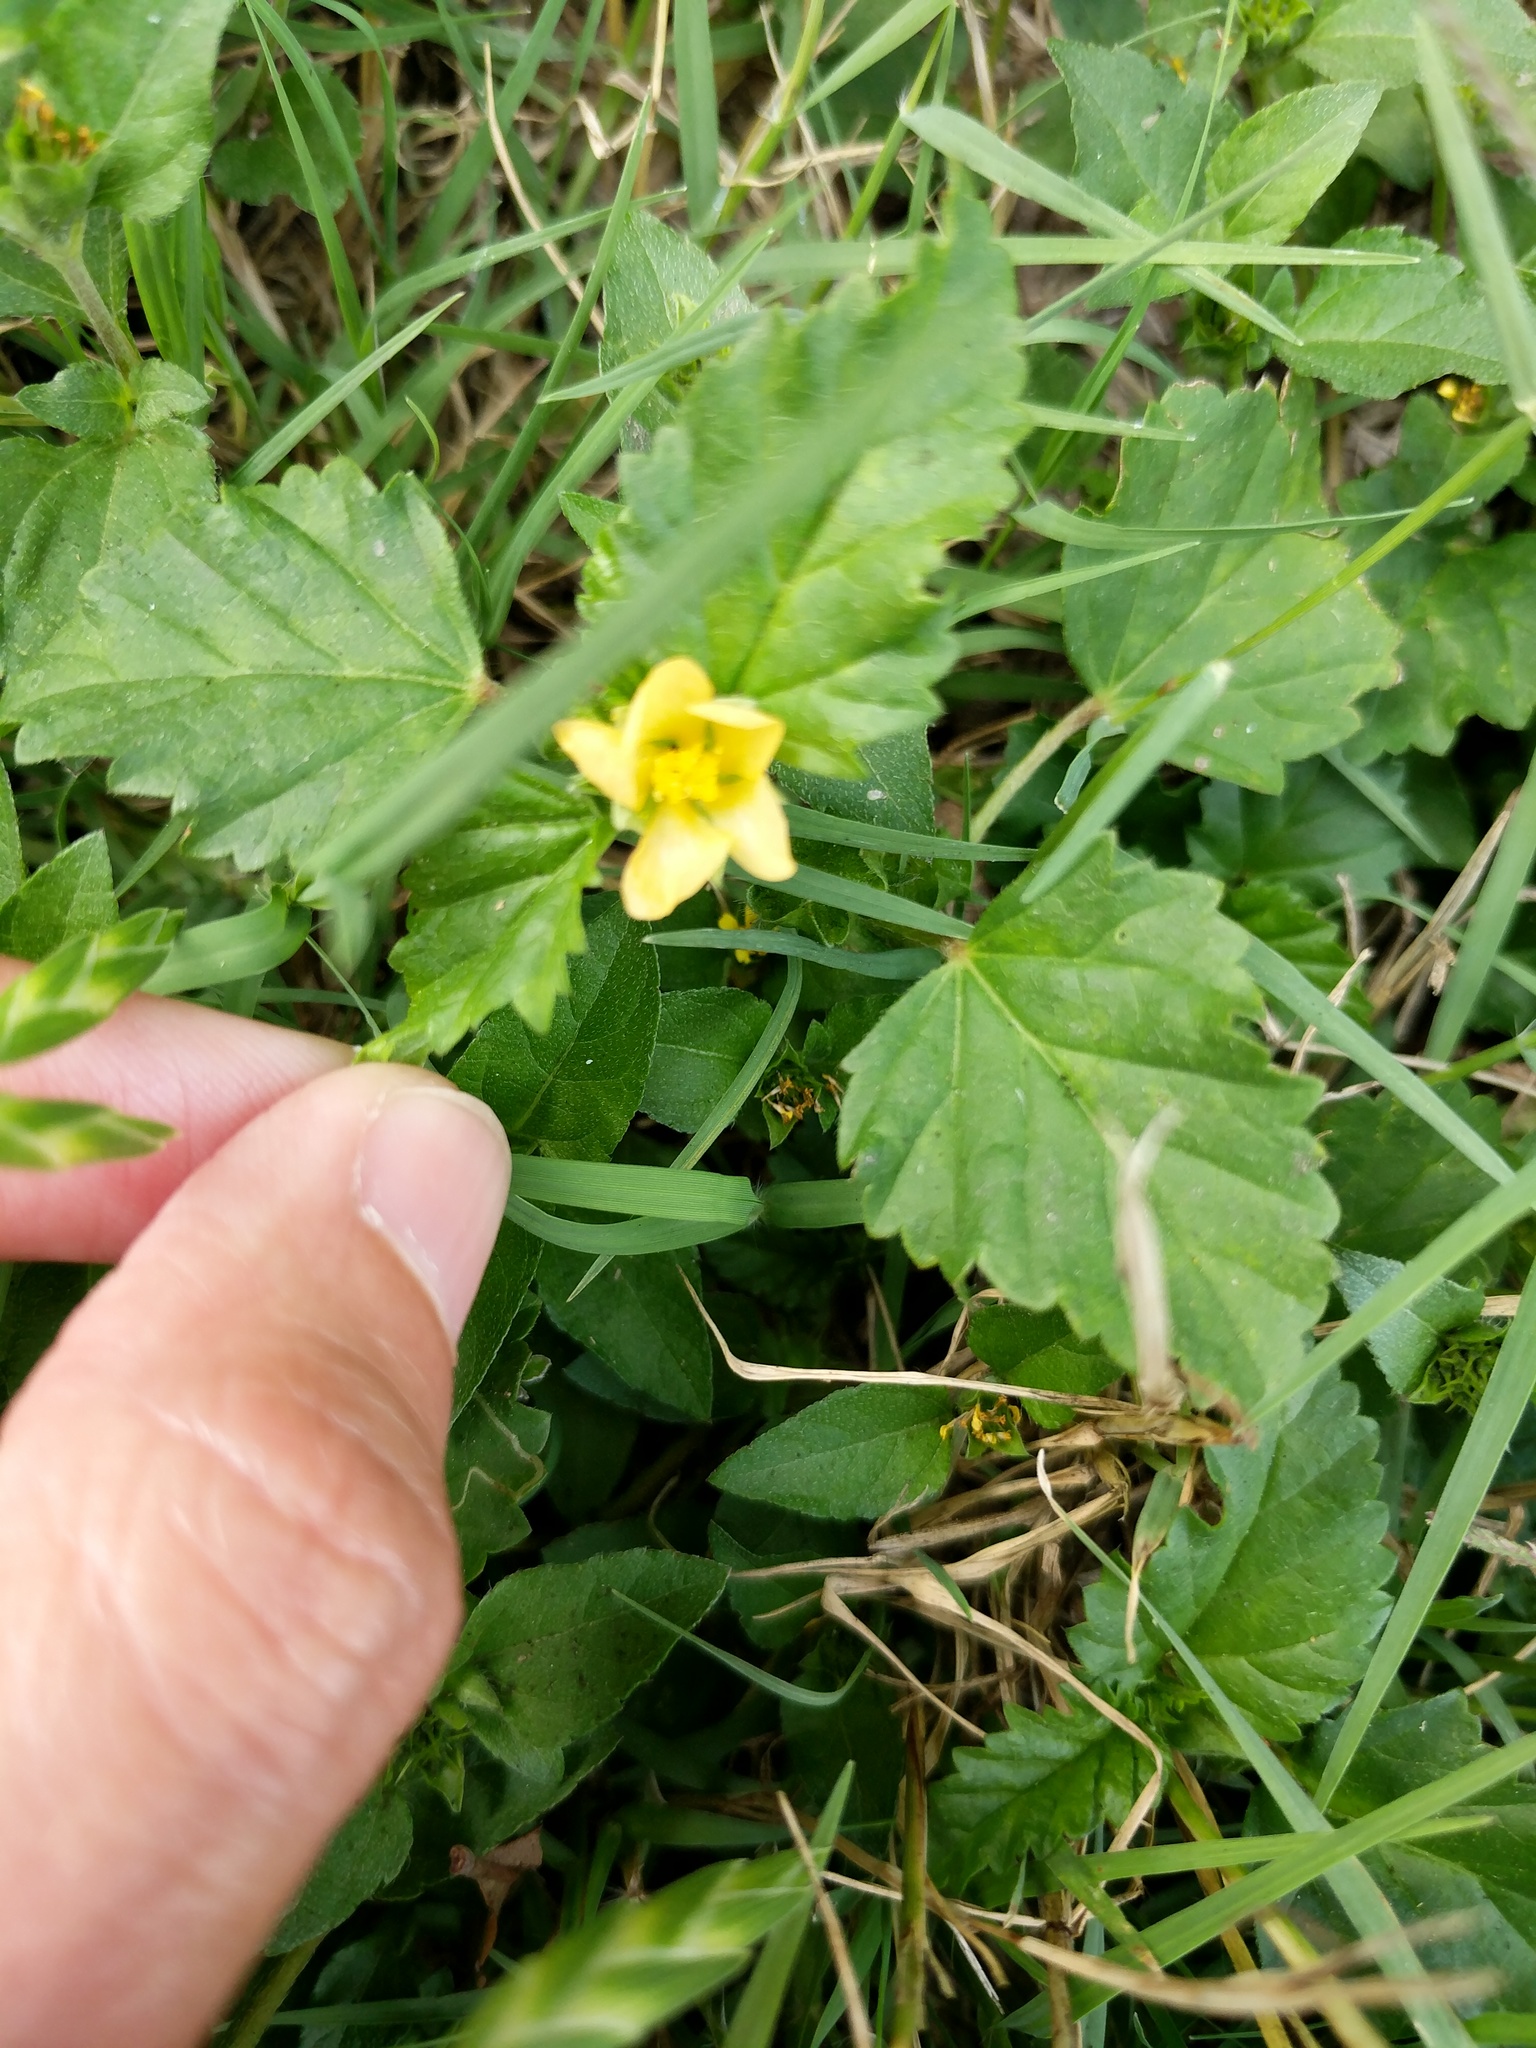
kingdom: Plantae
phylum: Tracheophyta
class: Magnoliopsida
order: Malvales
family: Malvaceae
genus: Malvastrum
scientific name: Malvastrum coromandelianum
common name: Threelobe false mallow
